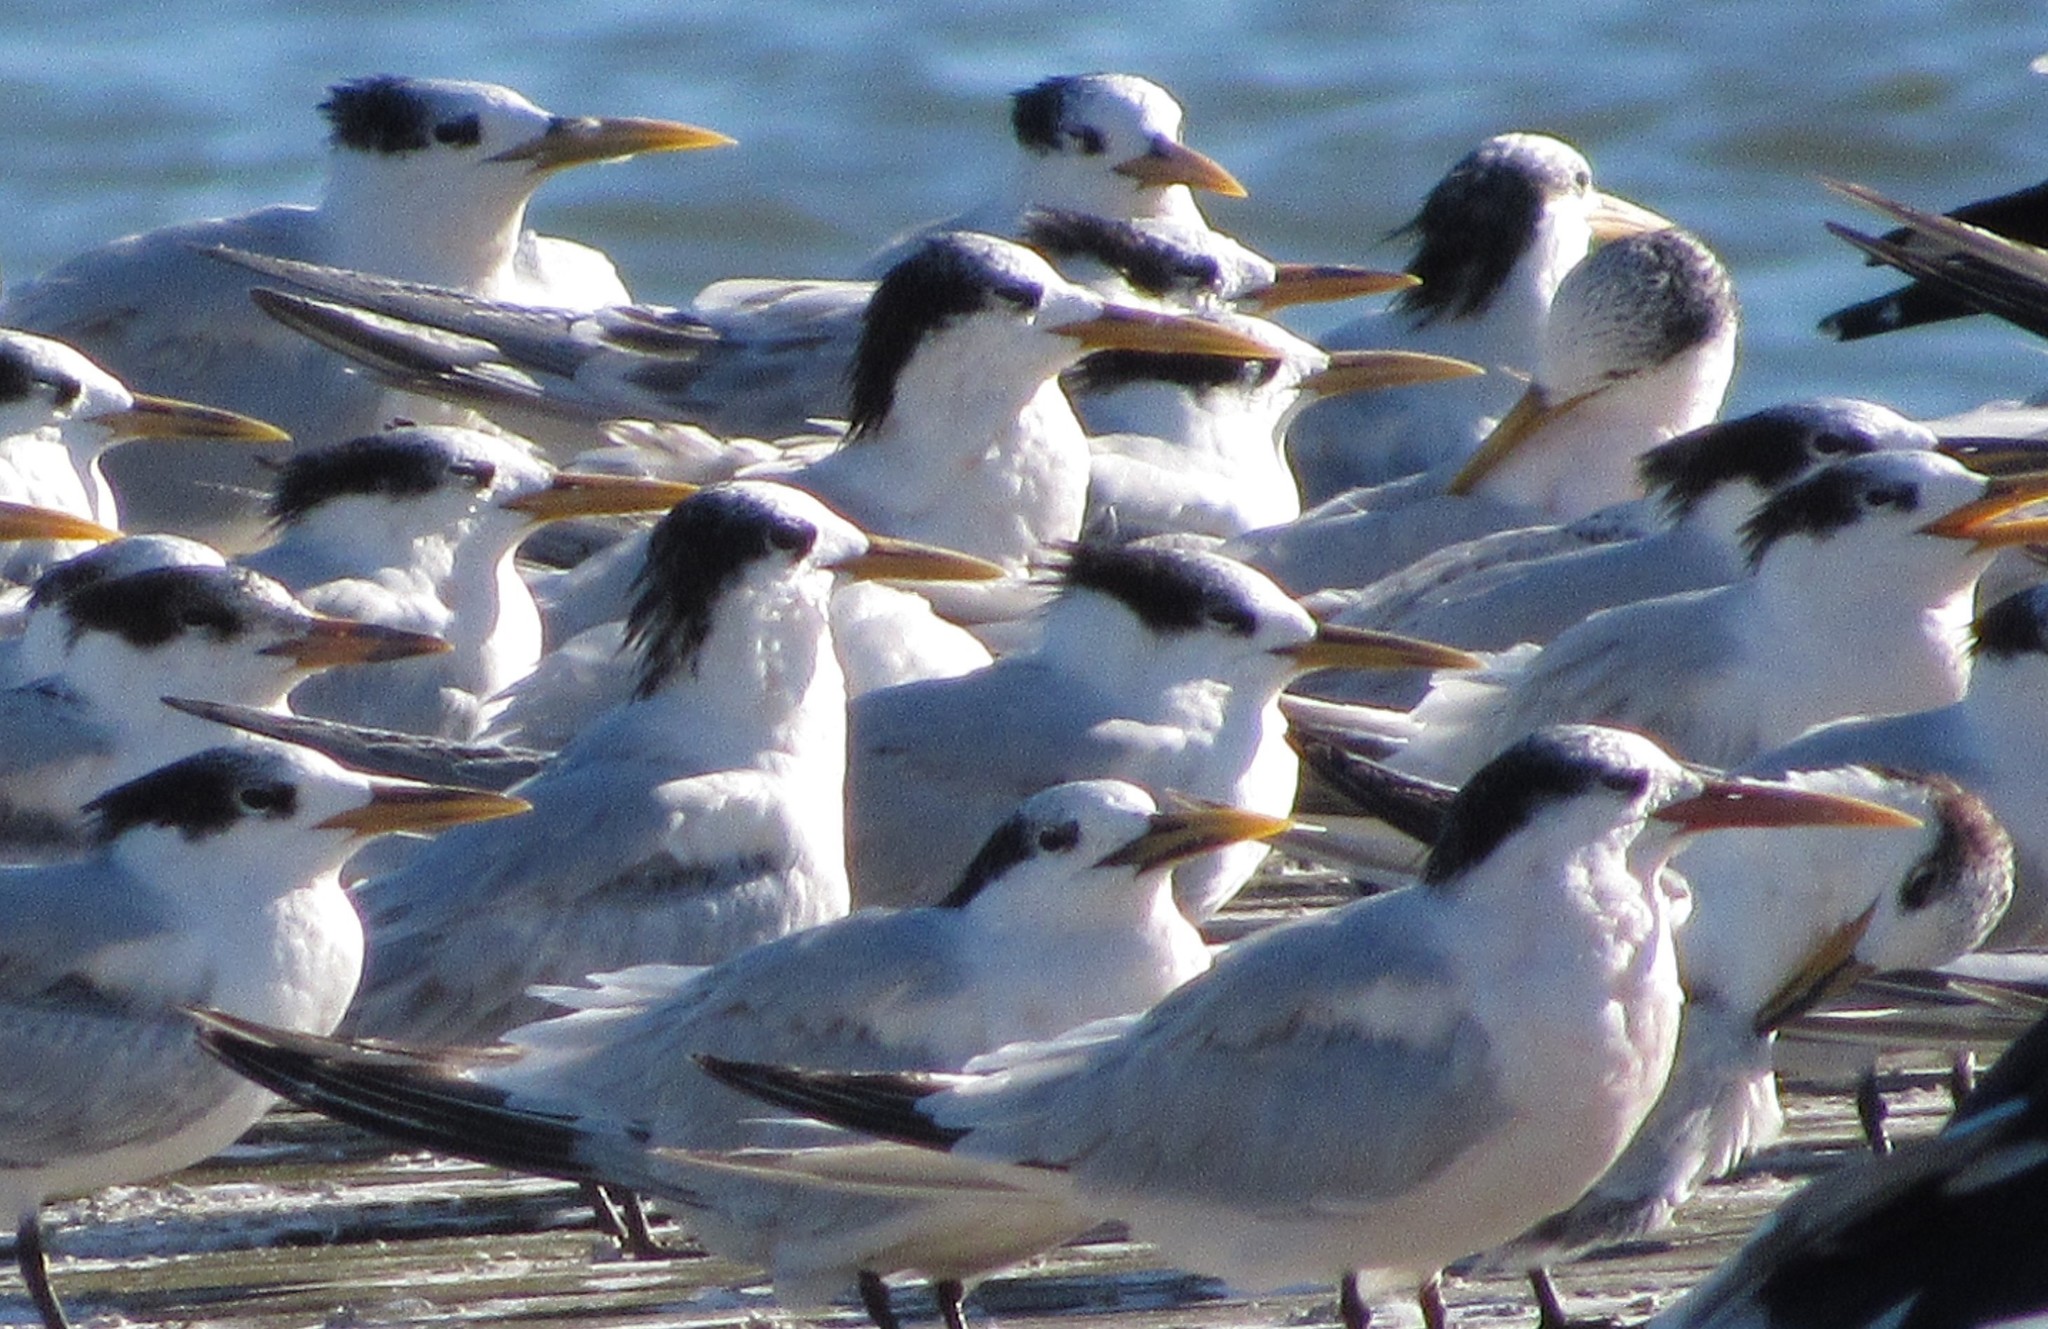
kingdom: Animalia
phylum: Chordata
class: Aves
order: Charadriiformes
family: Laridae
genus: Thalasseus
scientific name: Thalasseus acuflavidus
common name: Cabot's tern
